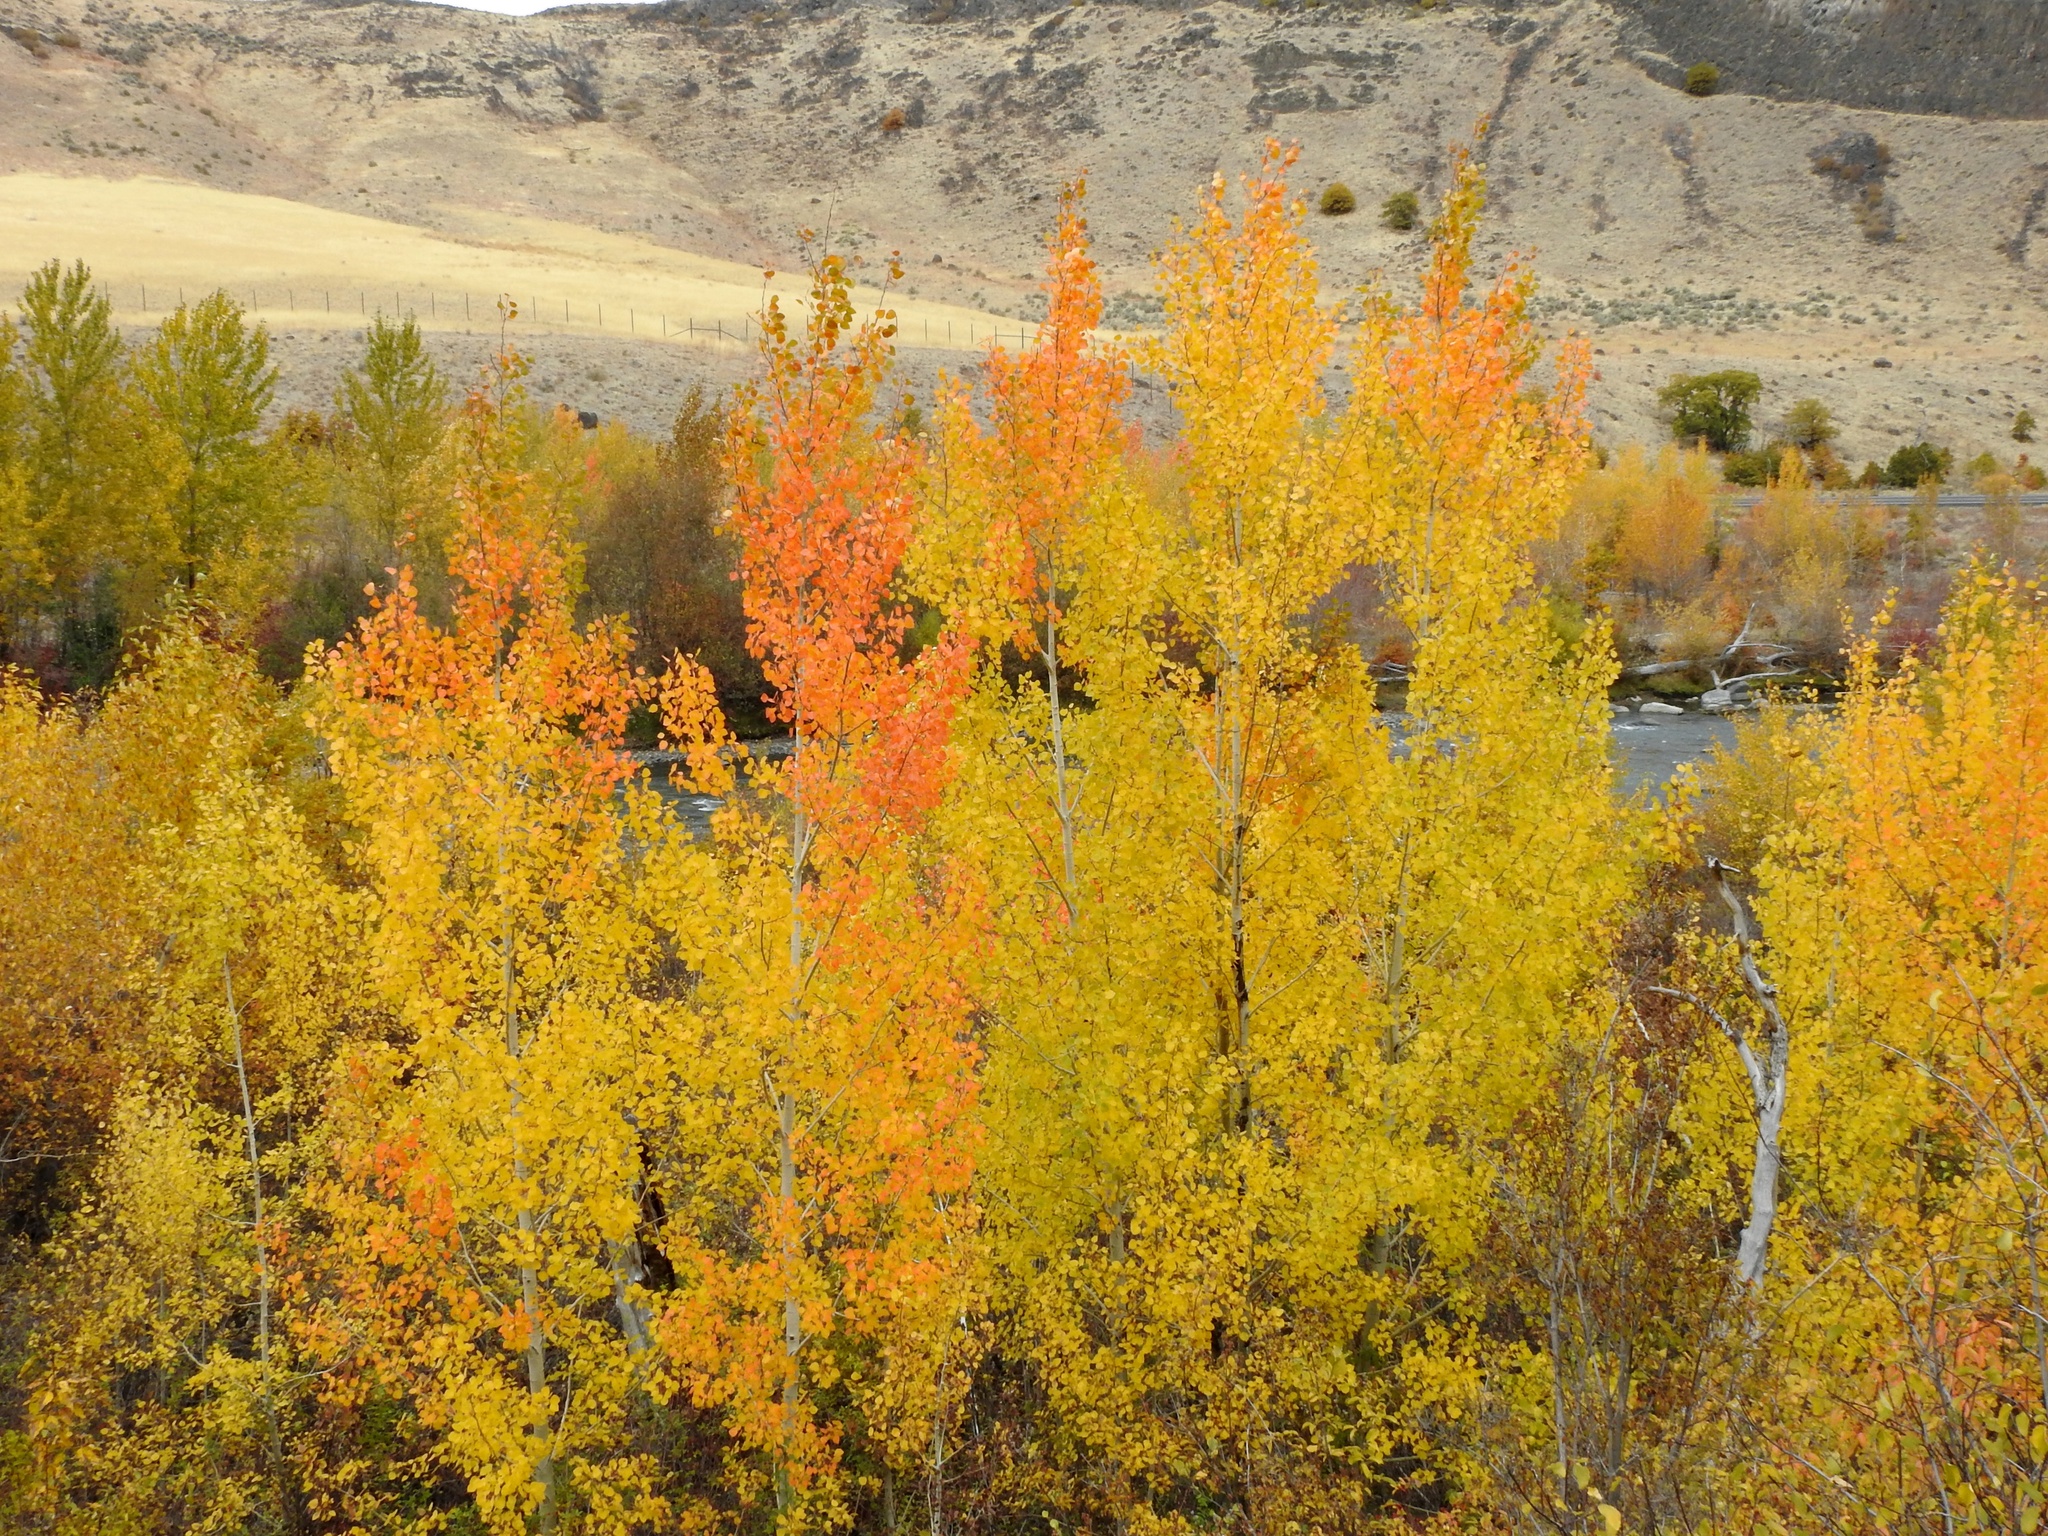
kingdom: Plantae
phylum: Tracheophyta
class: Magnoliopsida
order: Malpighiales
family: Salicaceae
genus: Populus
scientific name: Populus tremuloides
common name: Quaking aspen
